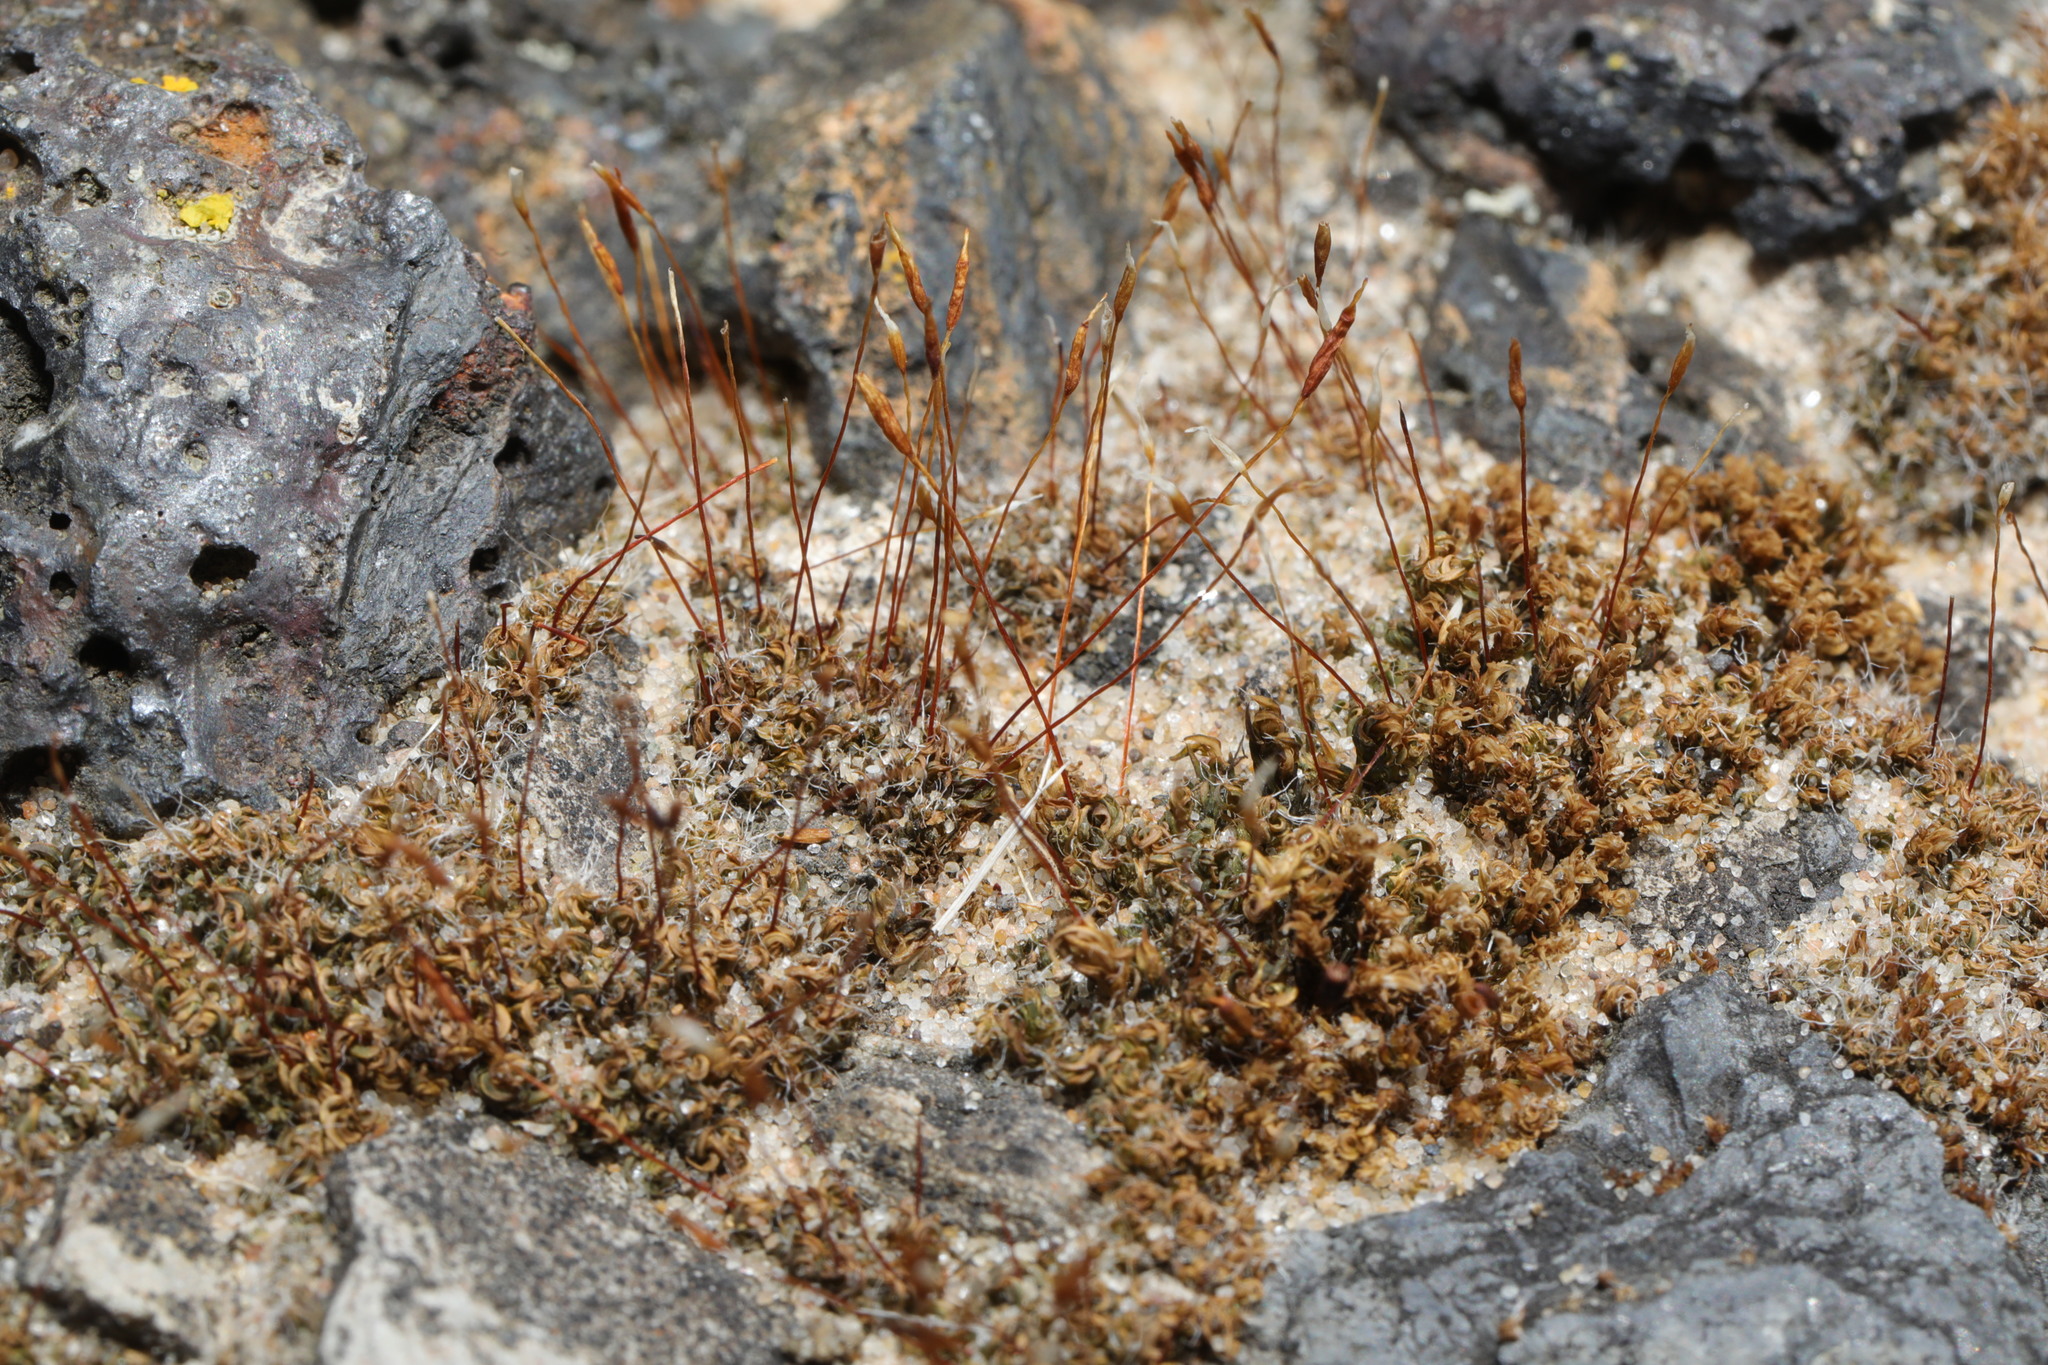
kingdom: Plantae
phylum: Bryophyta
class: Bryopsida
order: Pottiales
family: Pottiaceae
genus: Tortula
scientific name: Tortula muralis
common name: Wall screw-moss
